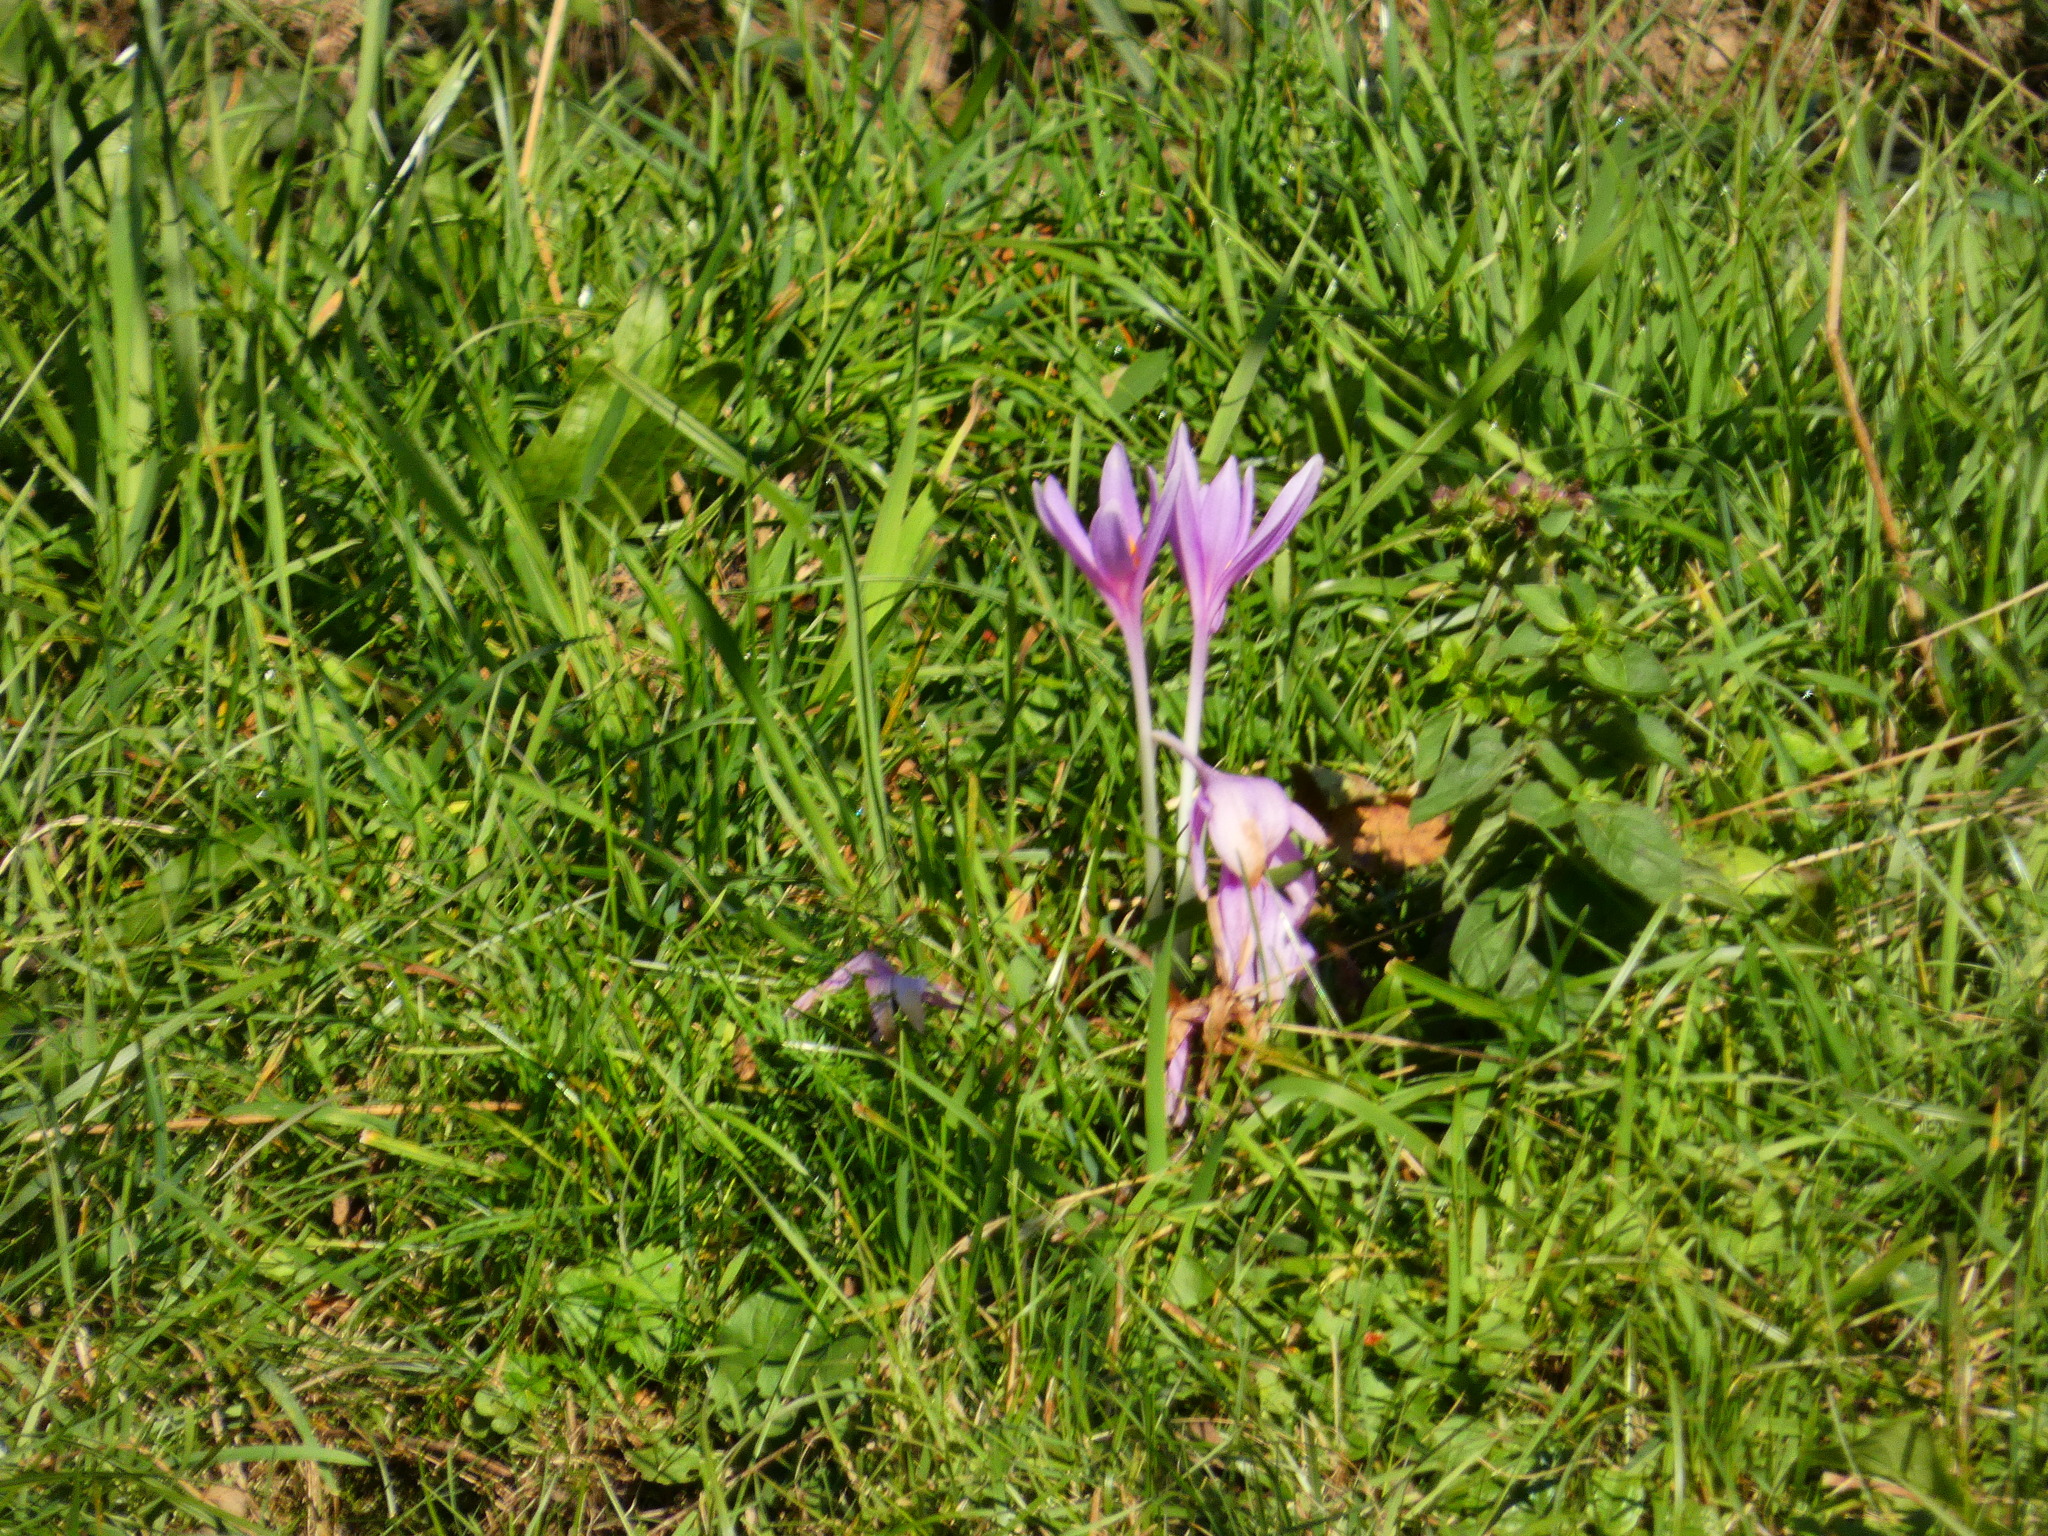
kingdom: Plantae
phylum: Tracheophyta
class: Liliopsida
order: Liliales
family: Colchicaceae
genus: Colchicum
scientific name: Colchicum autumnale
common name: Autumn crocus
